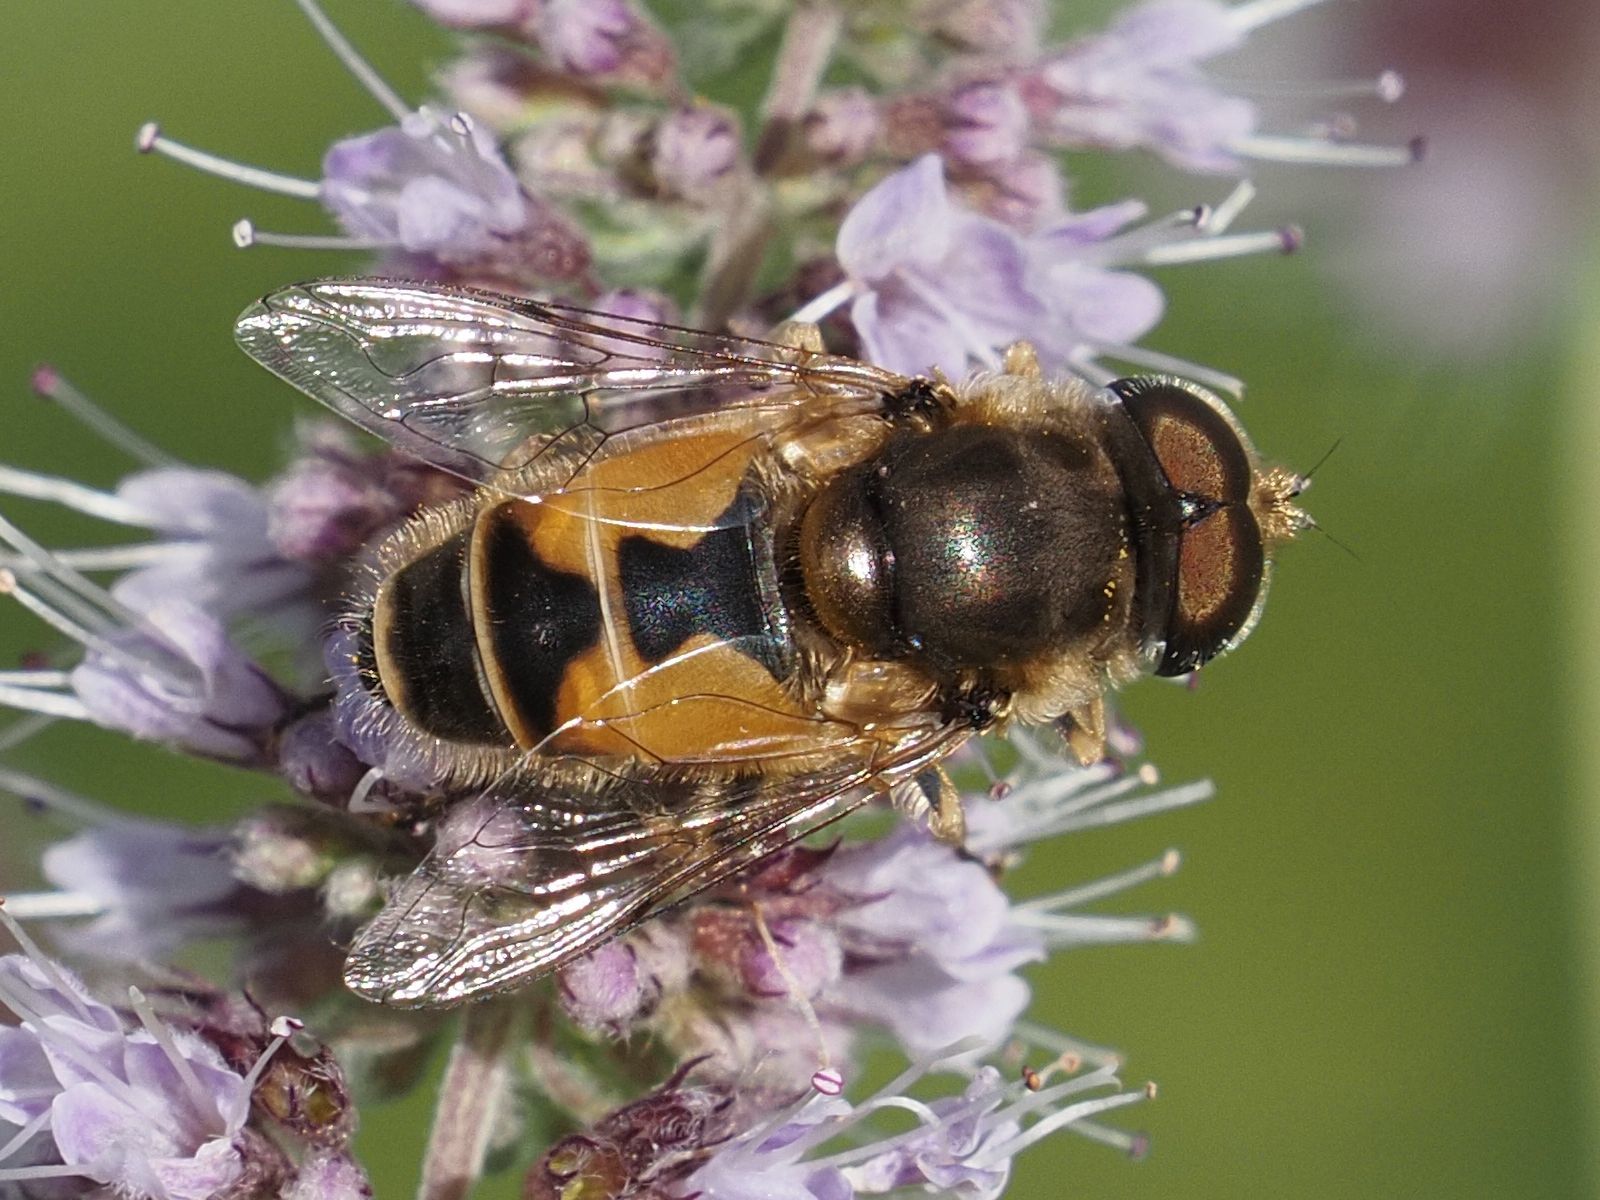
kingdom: Animalia
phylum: Arthropoda
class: Insecta
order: Diptera
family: Syrphidae
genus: Eristalis
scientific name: Eristalis arbustorum
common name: Hover fly
